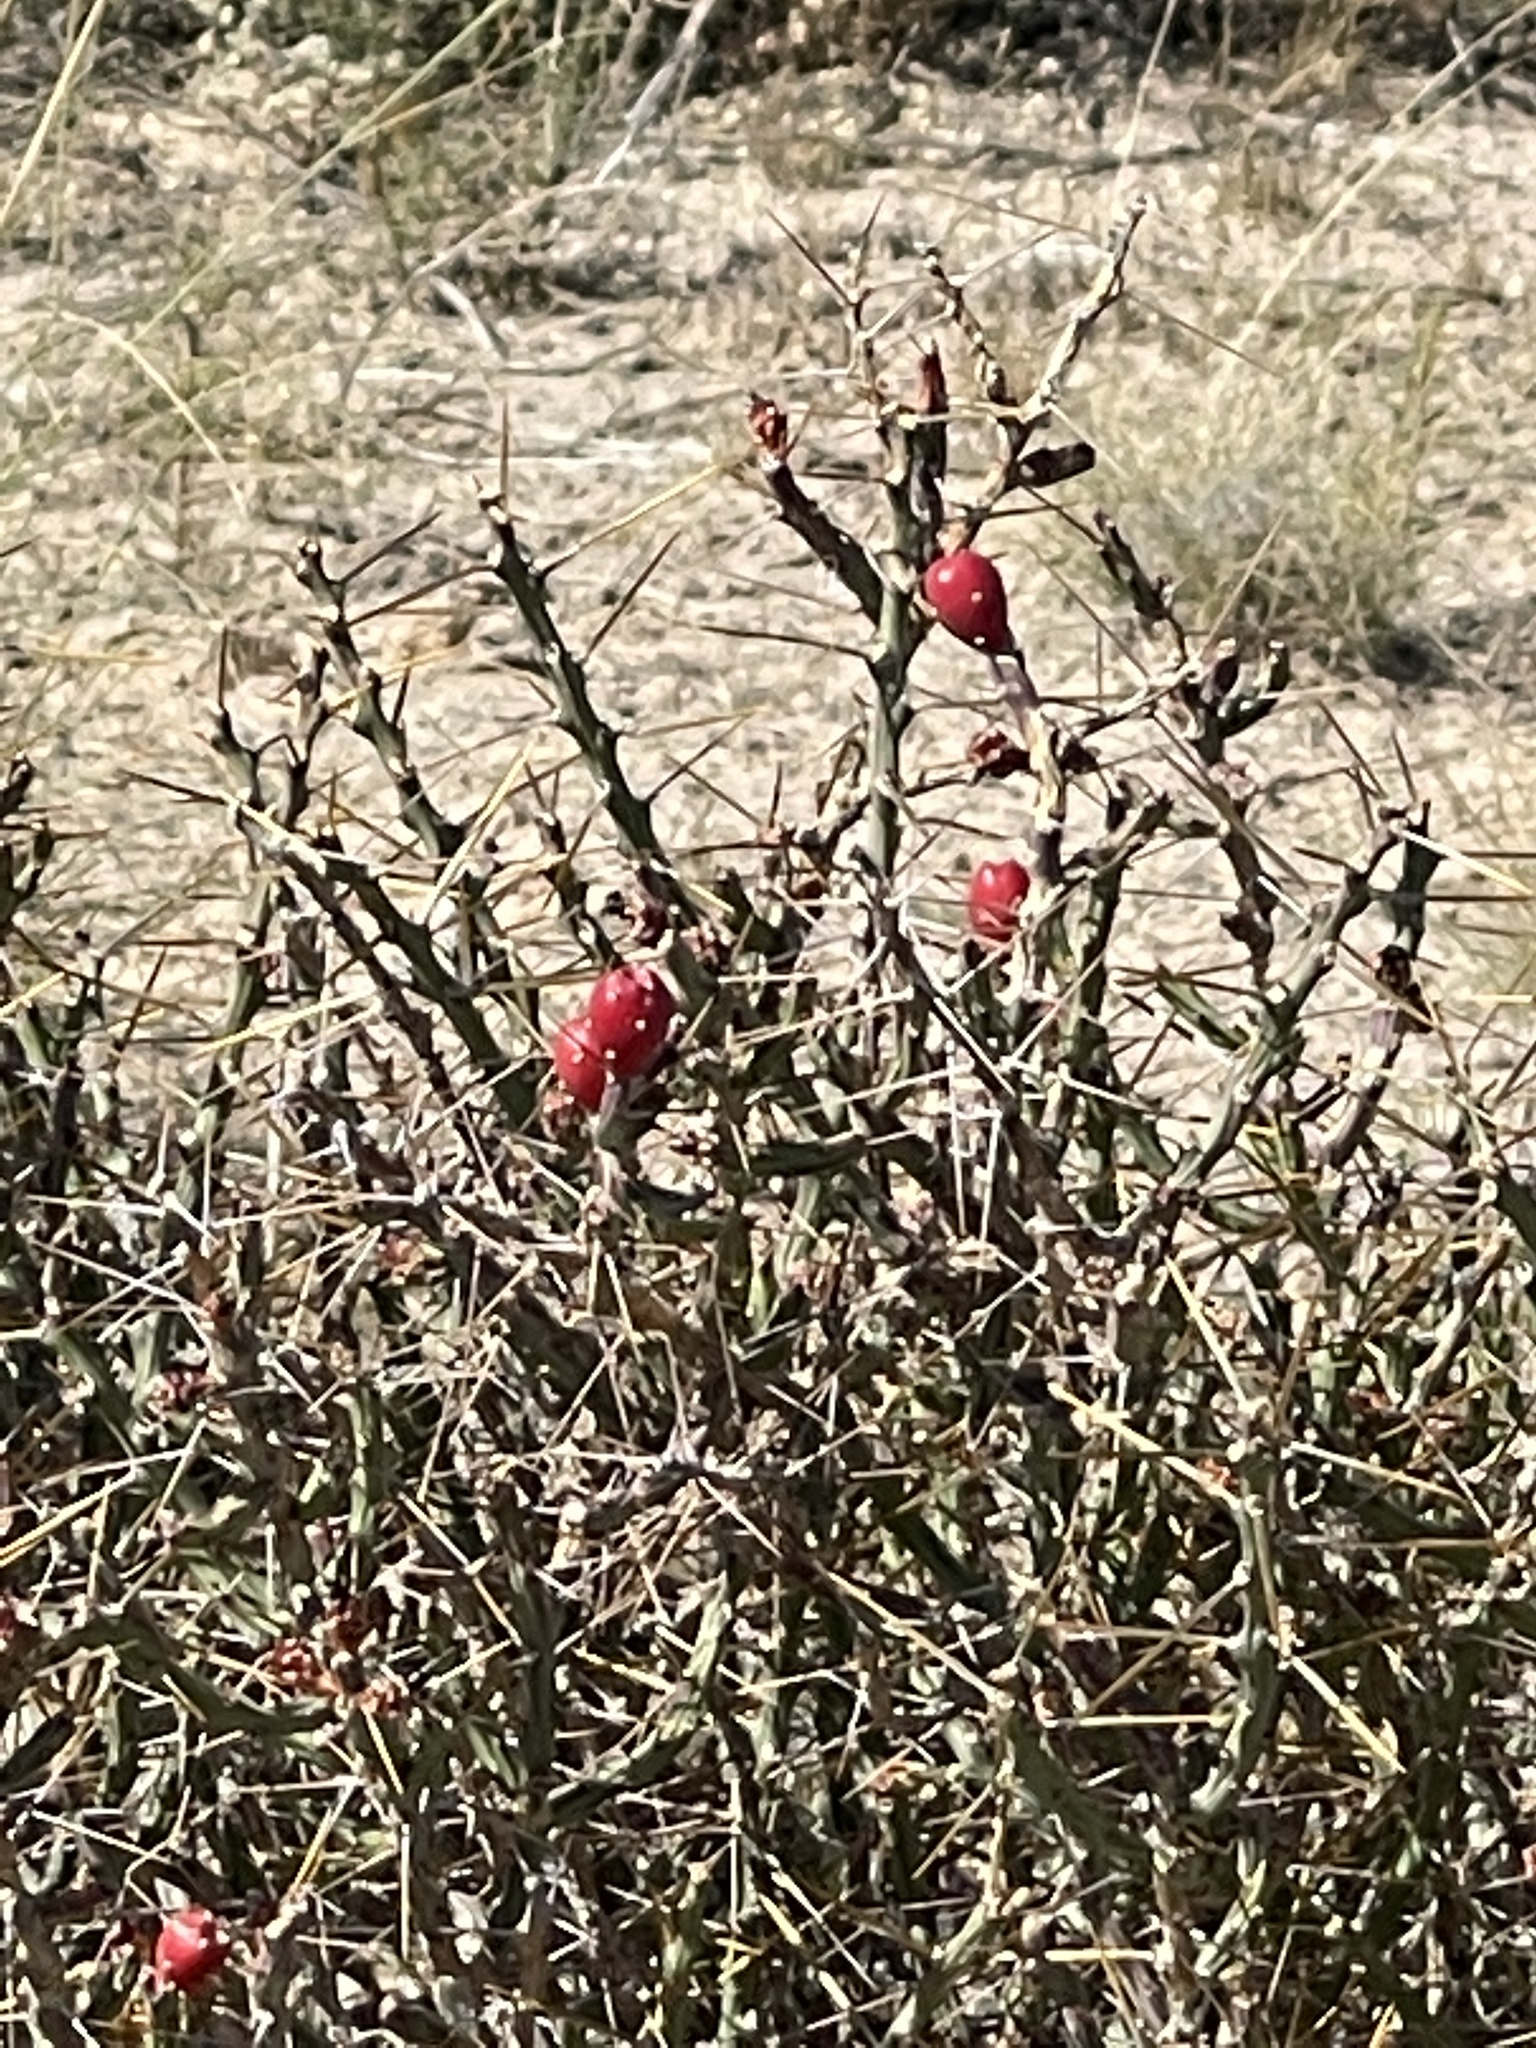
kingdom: Plantae
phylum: Tracheophyta
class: Magnoliopsida
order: Caryophyllales
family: Cactaceae
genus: Cylindropuntia
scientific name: Cylindropuntia leptocaulis
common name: Christmas cactus
